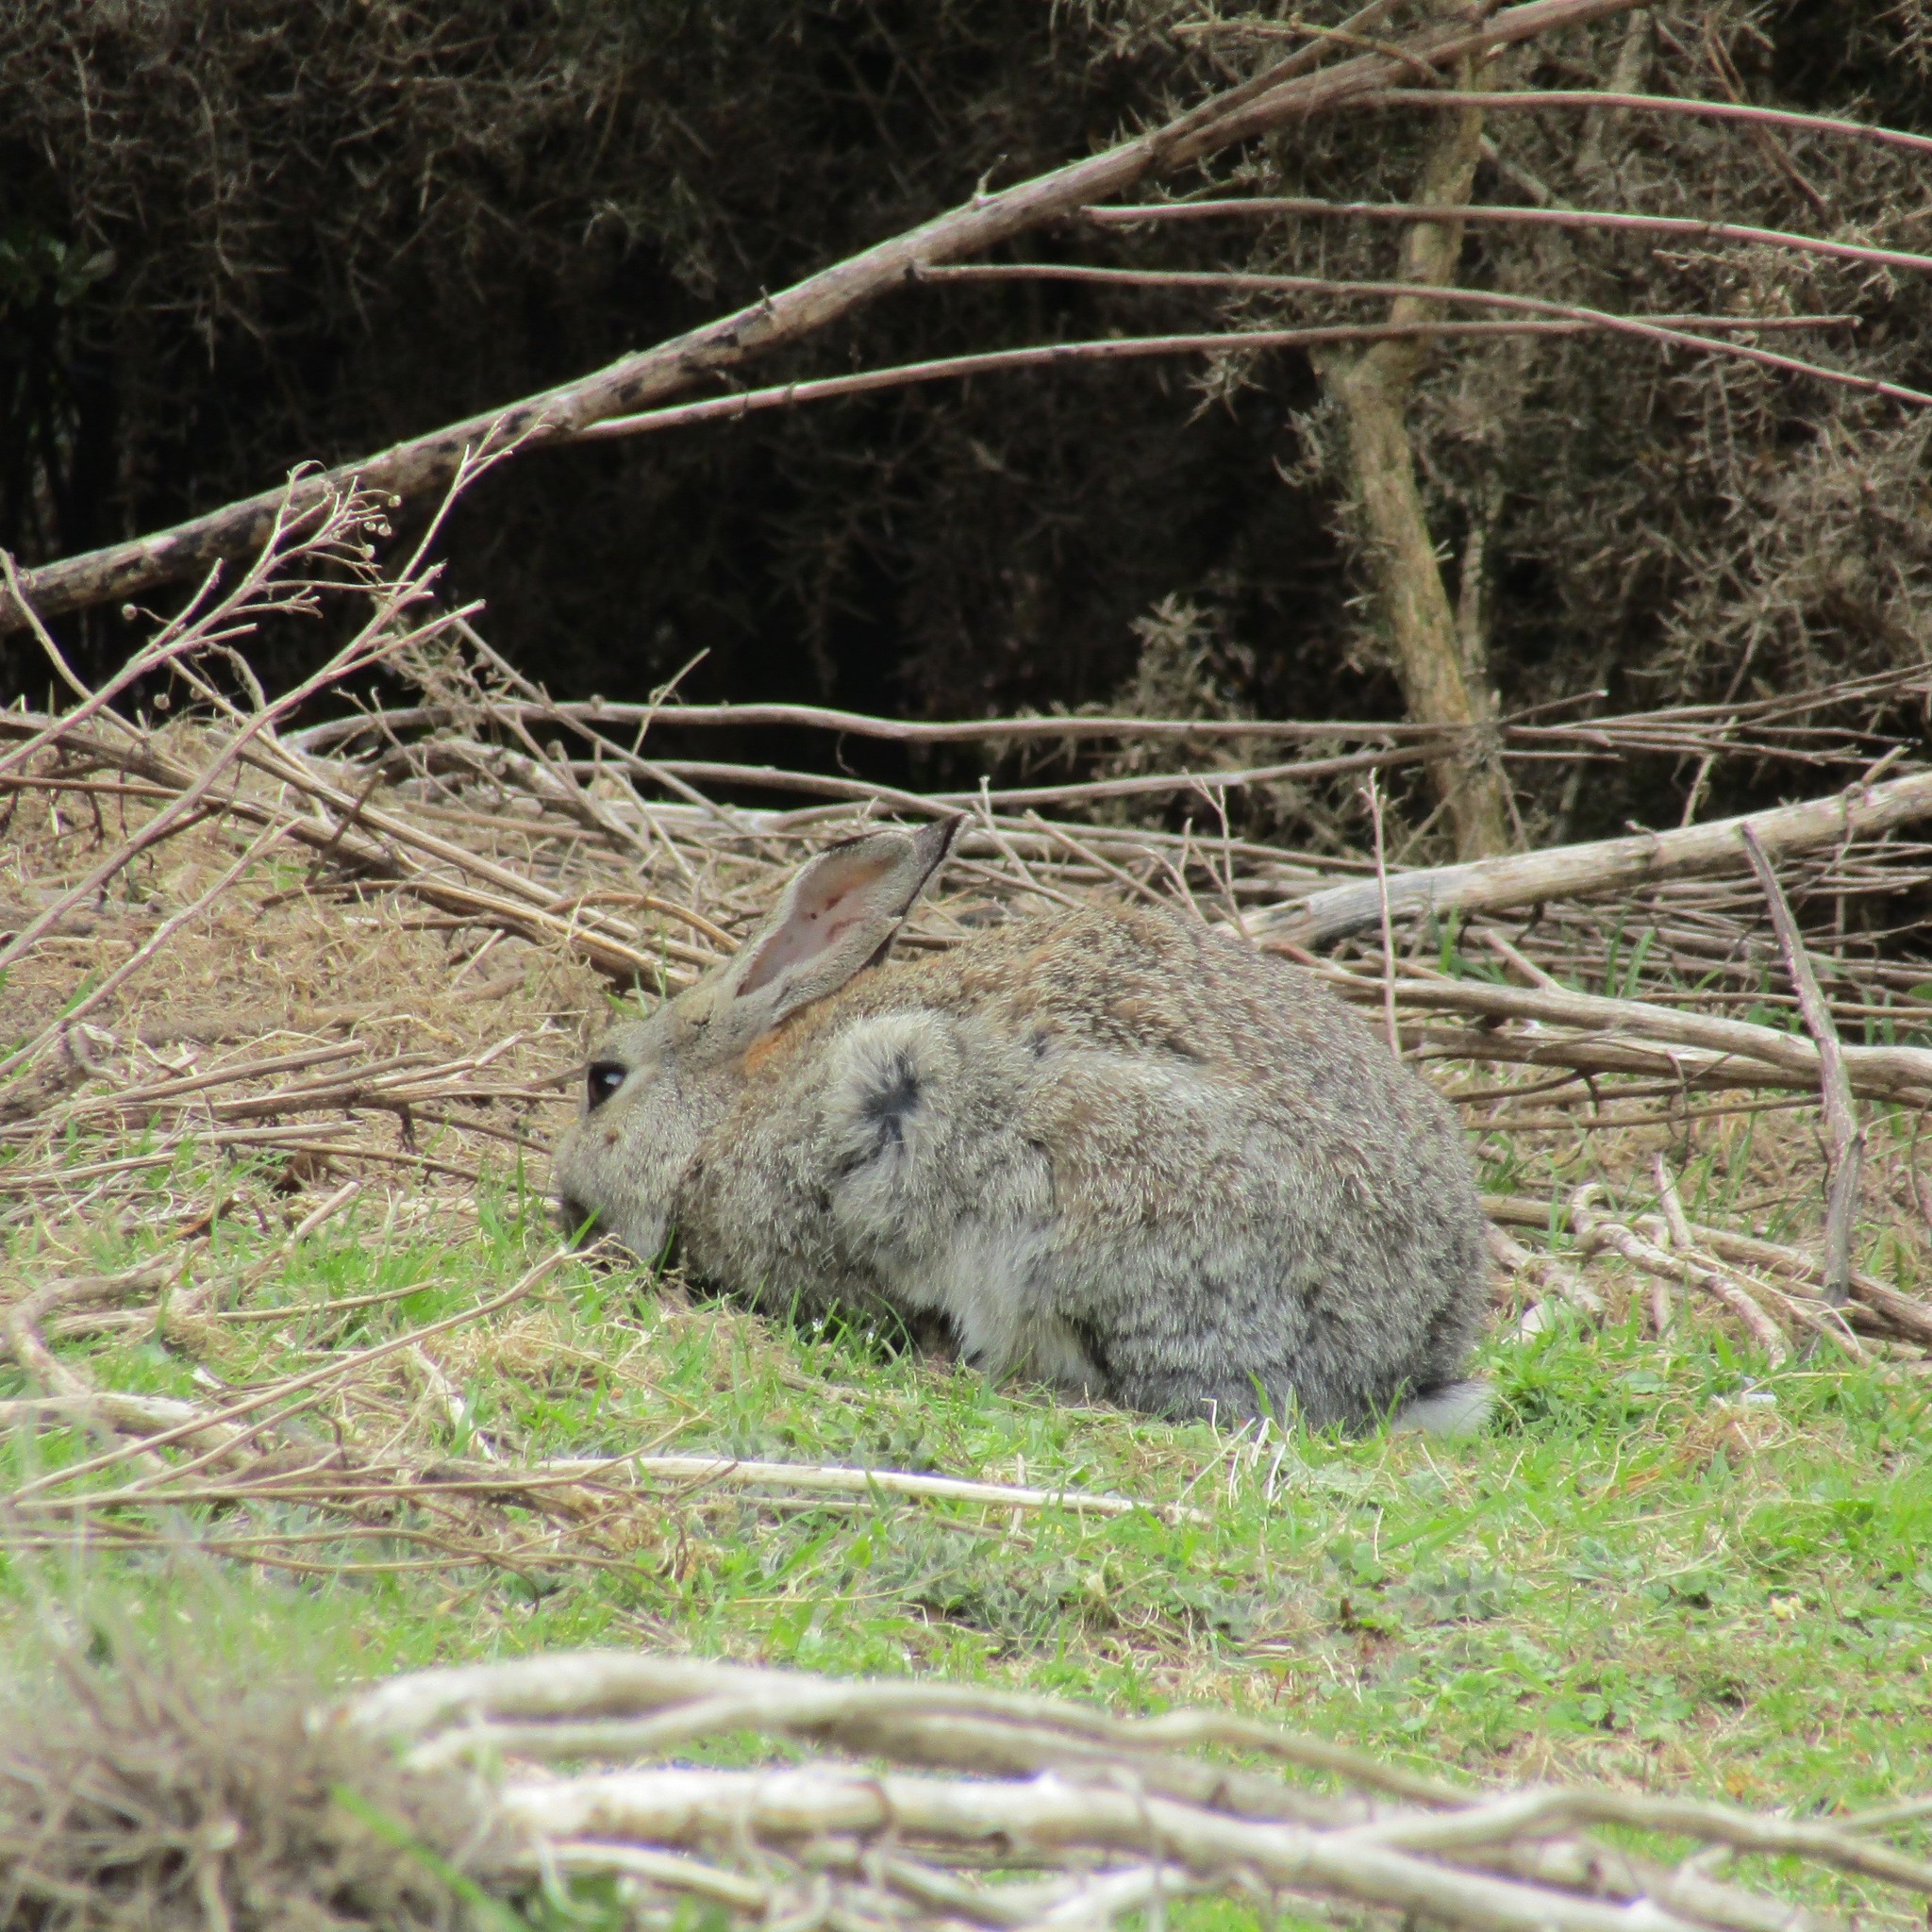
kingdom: Animalia
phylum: Chordata
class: Mammalia
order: Lagomorpha
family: Leporidae
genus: Oryctolagus
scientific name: Oryctolagus cuniculus
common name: European rabbit
